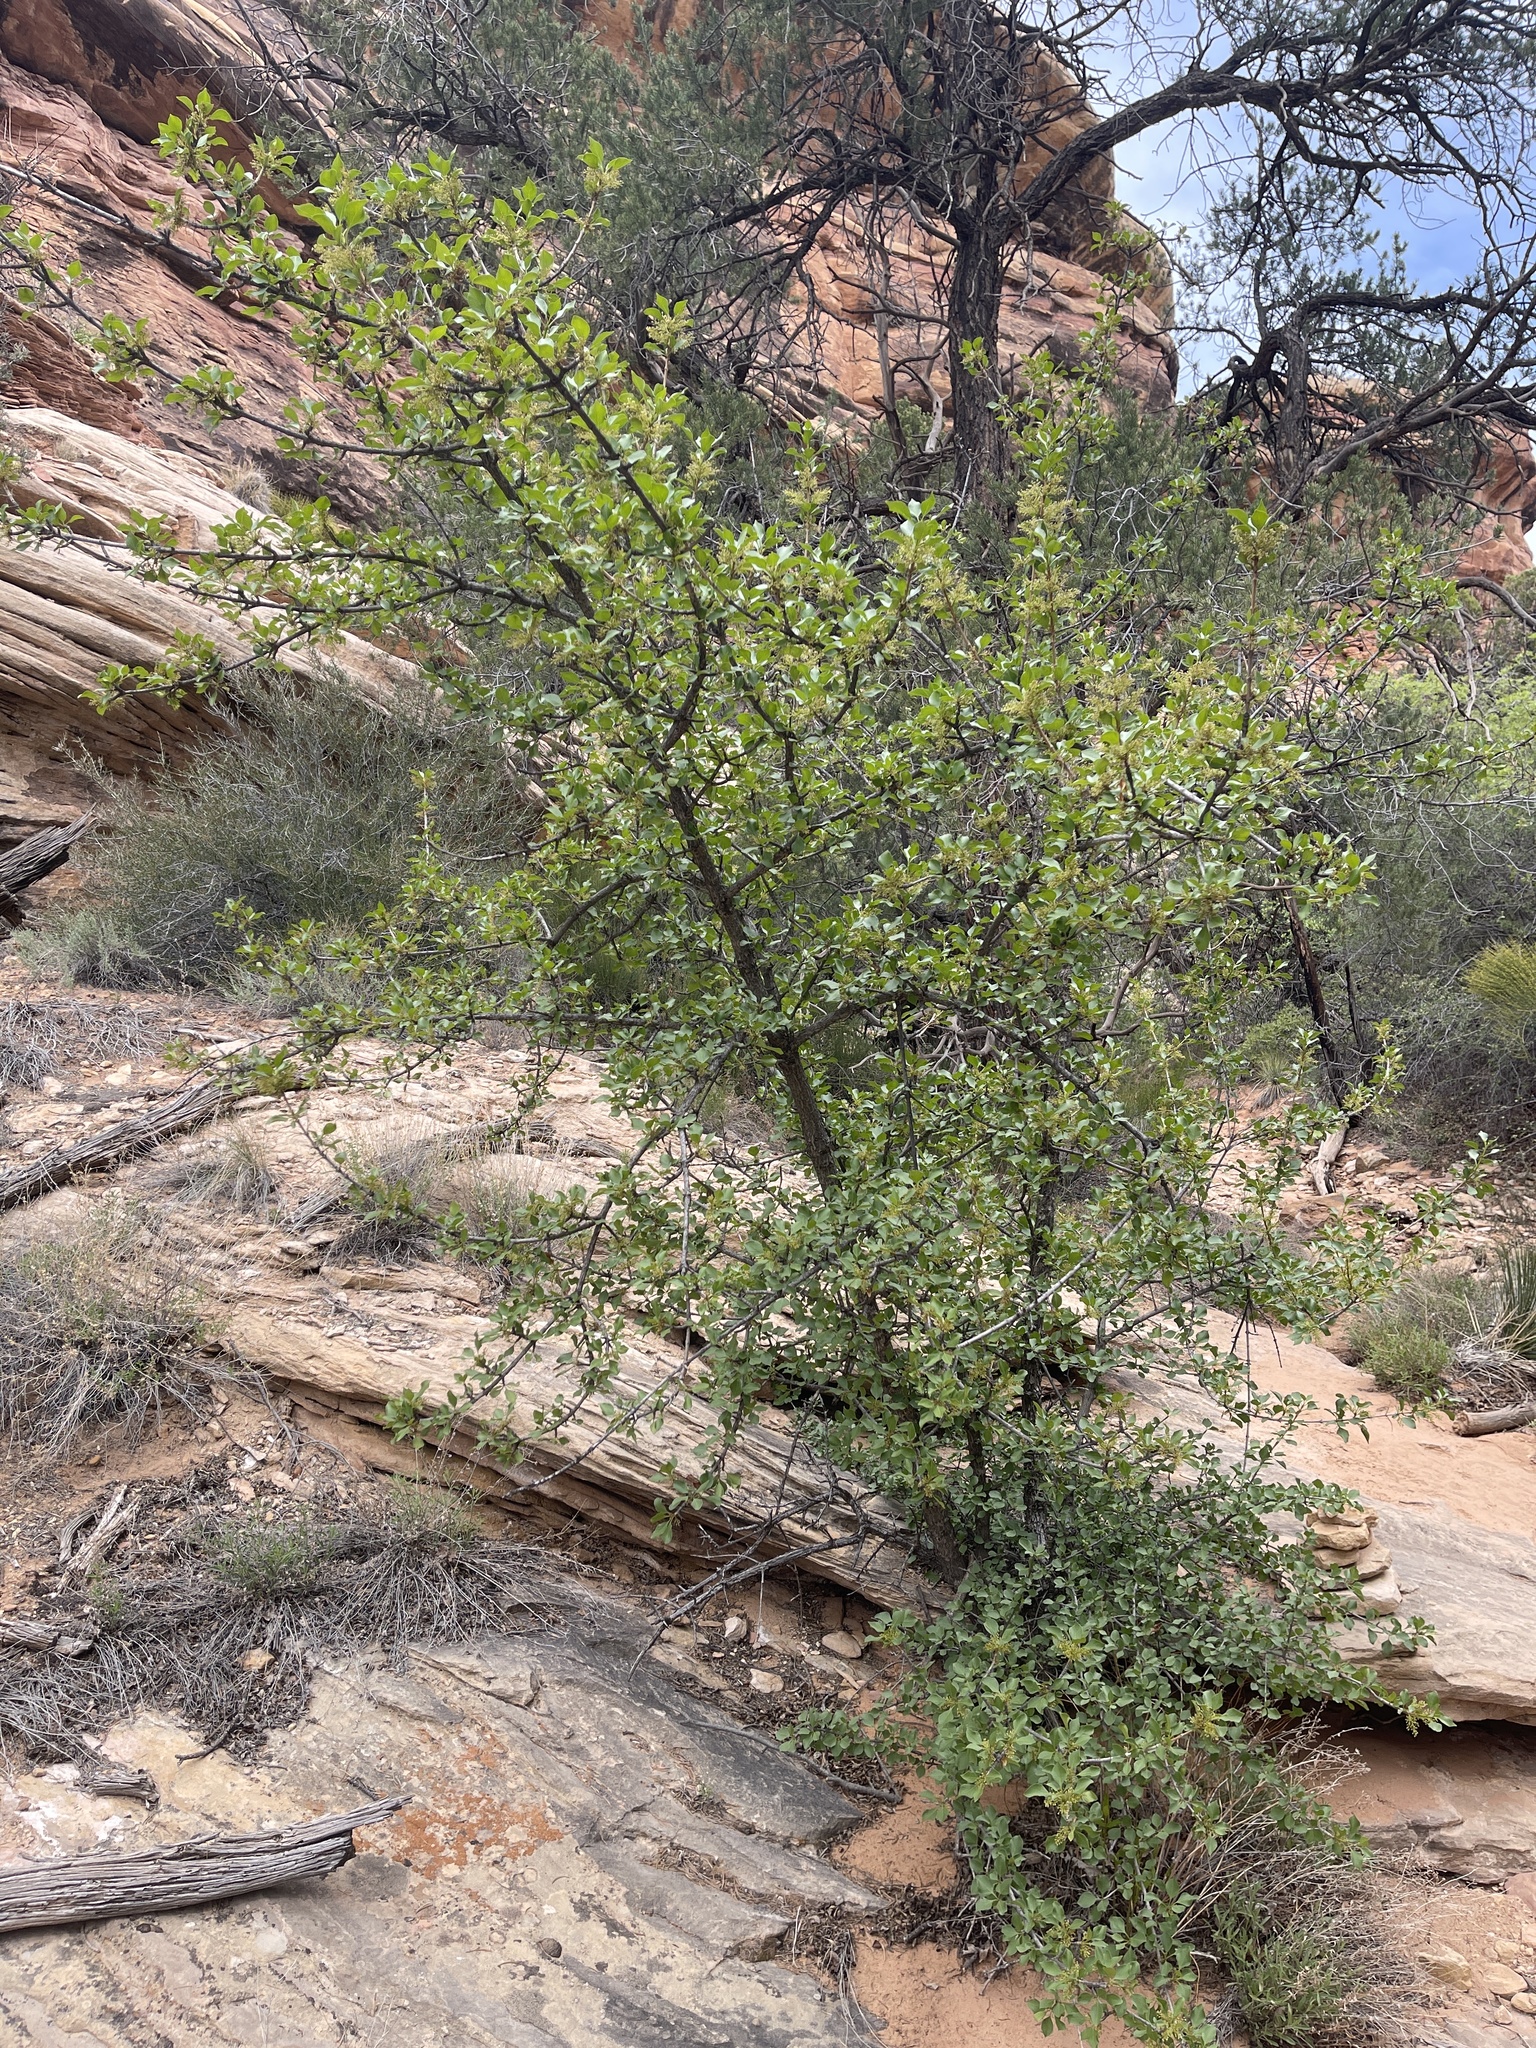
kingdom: Plantae
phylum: Tracheophyta
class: Magnoliopsida
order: Lamiales
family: Oleaceae
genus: Fraxinus
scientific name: Fraxinus anomala
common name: Utah ash
